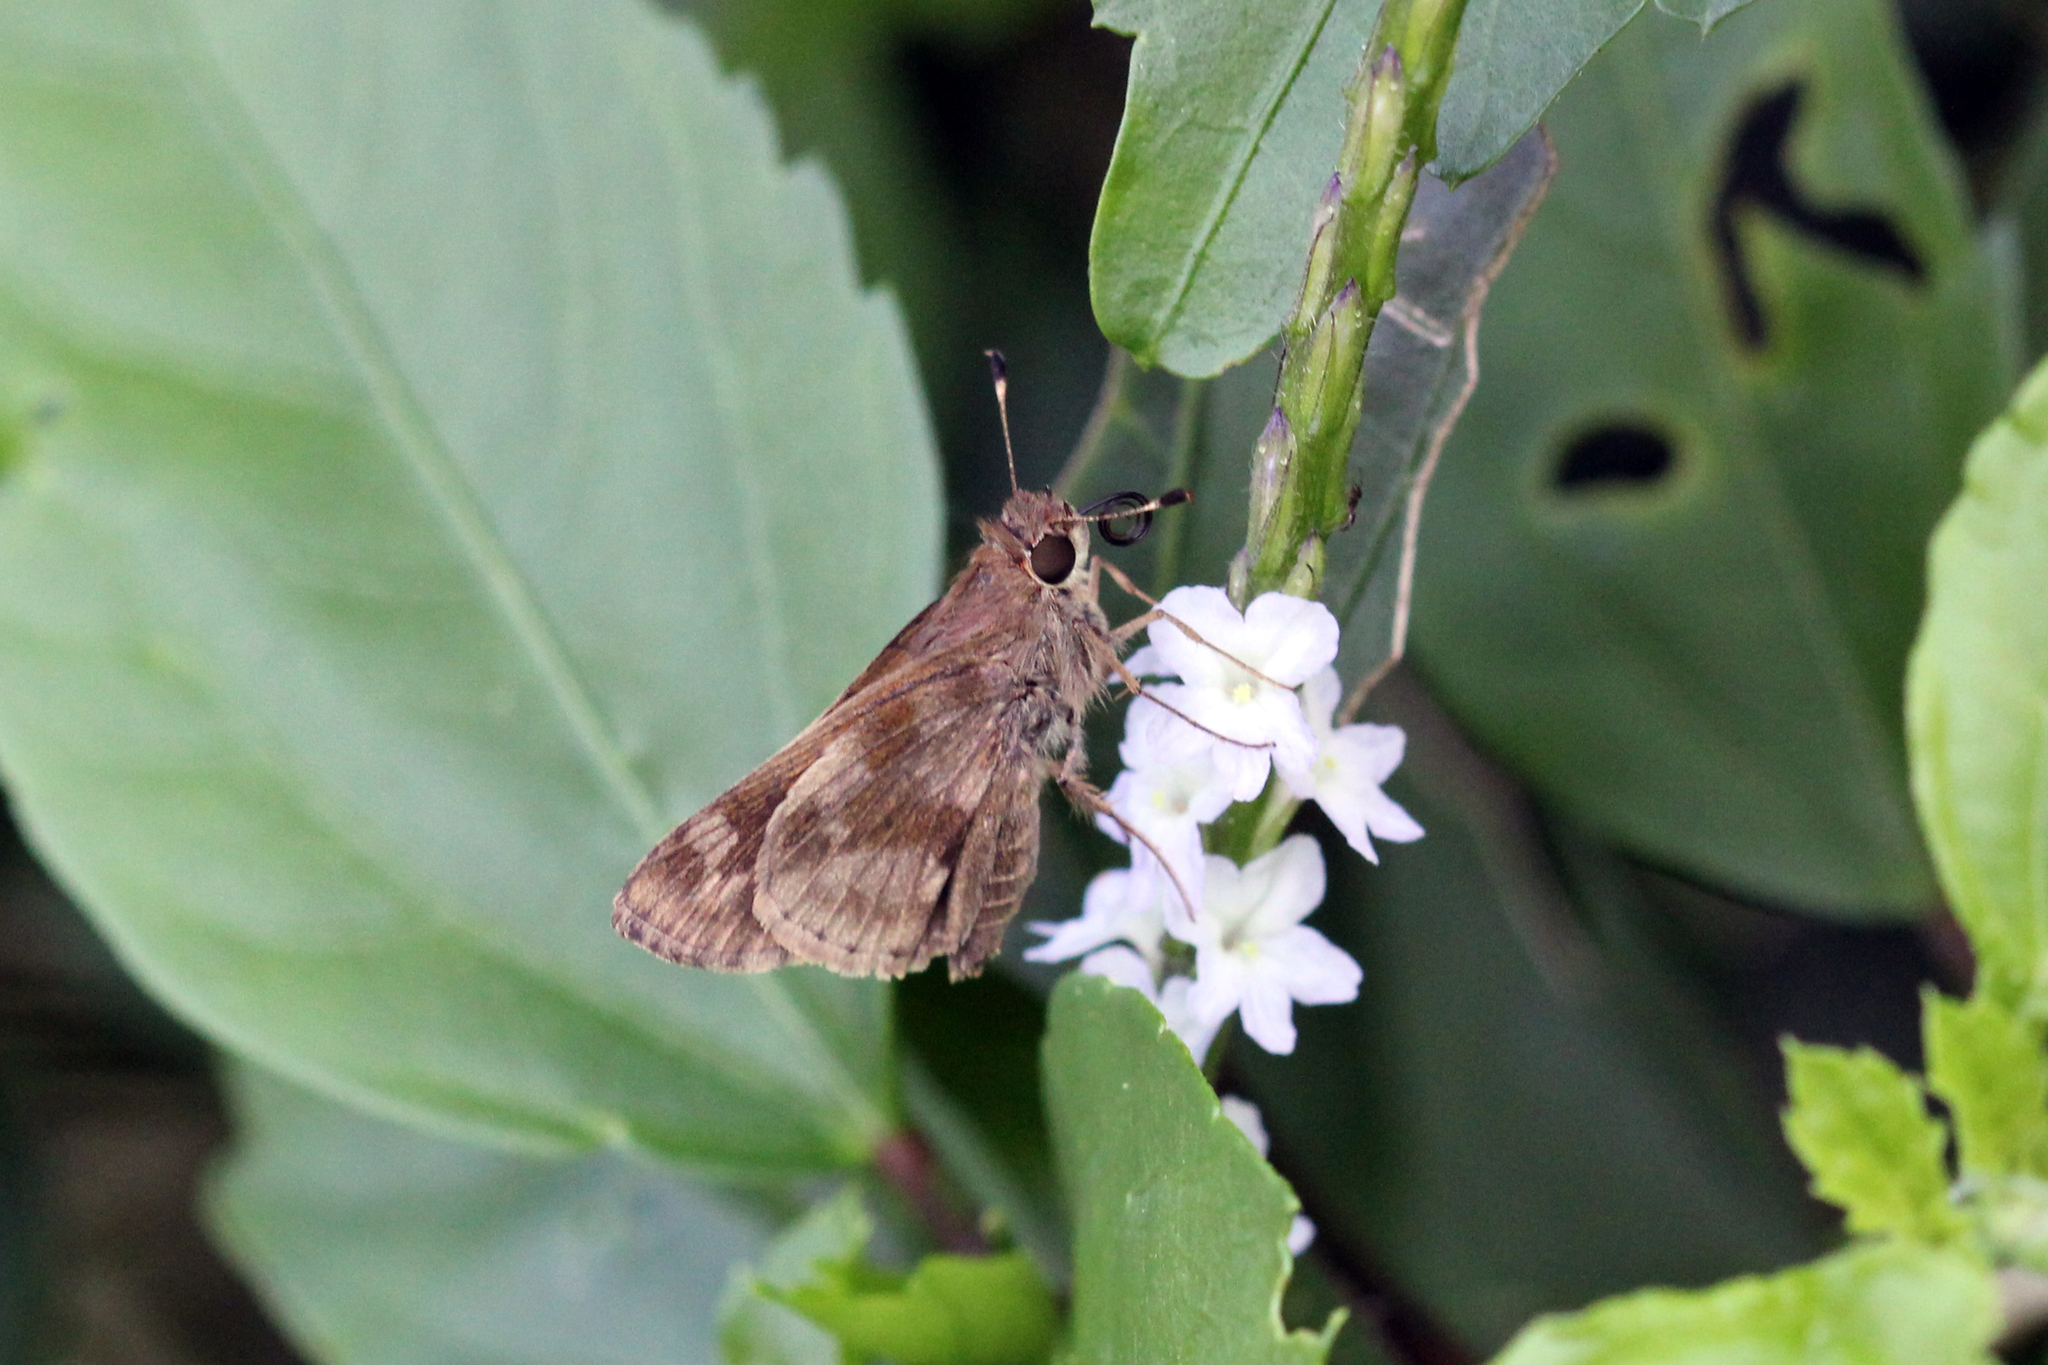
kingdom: Animalia
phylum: Arthropoda
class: Insecta
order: Lepidoptera
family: Hesperiidae
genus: Pompeius
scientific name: Pompeius pompeius
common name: Pompeius skipper
